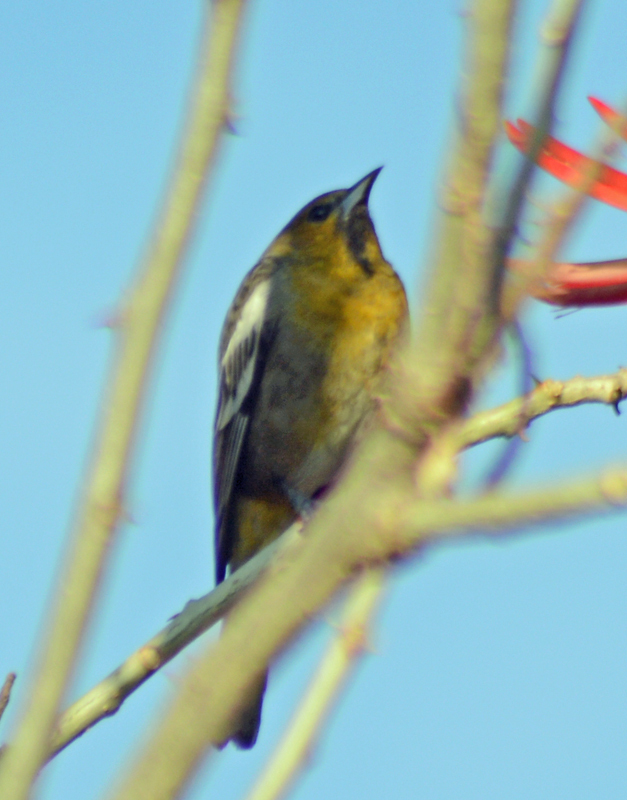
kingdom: Animalia
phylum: Chordata
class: Aves
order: Passeriformes
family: Icteridae
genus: Icterus
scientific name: Icterus abeillei
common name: Black-backed oriole
